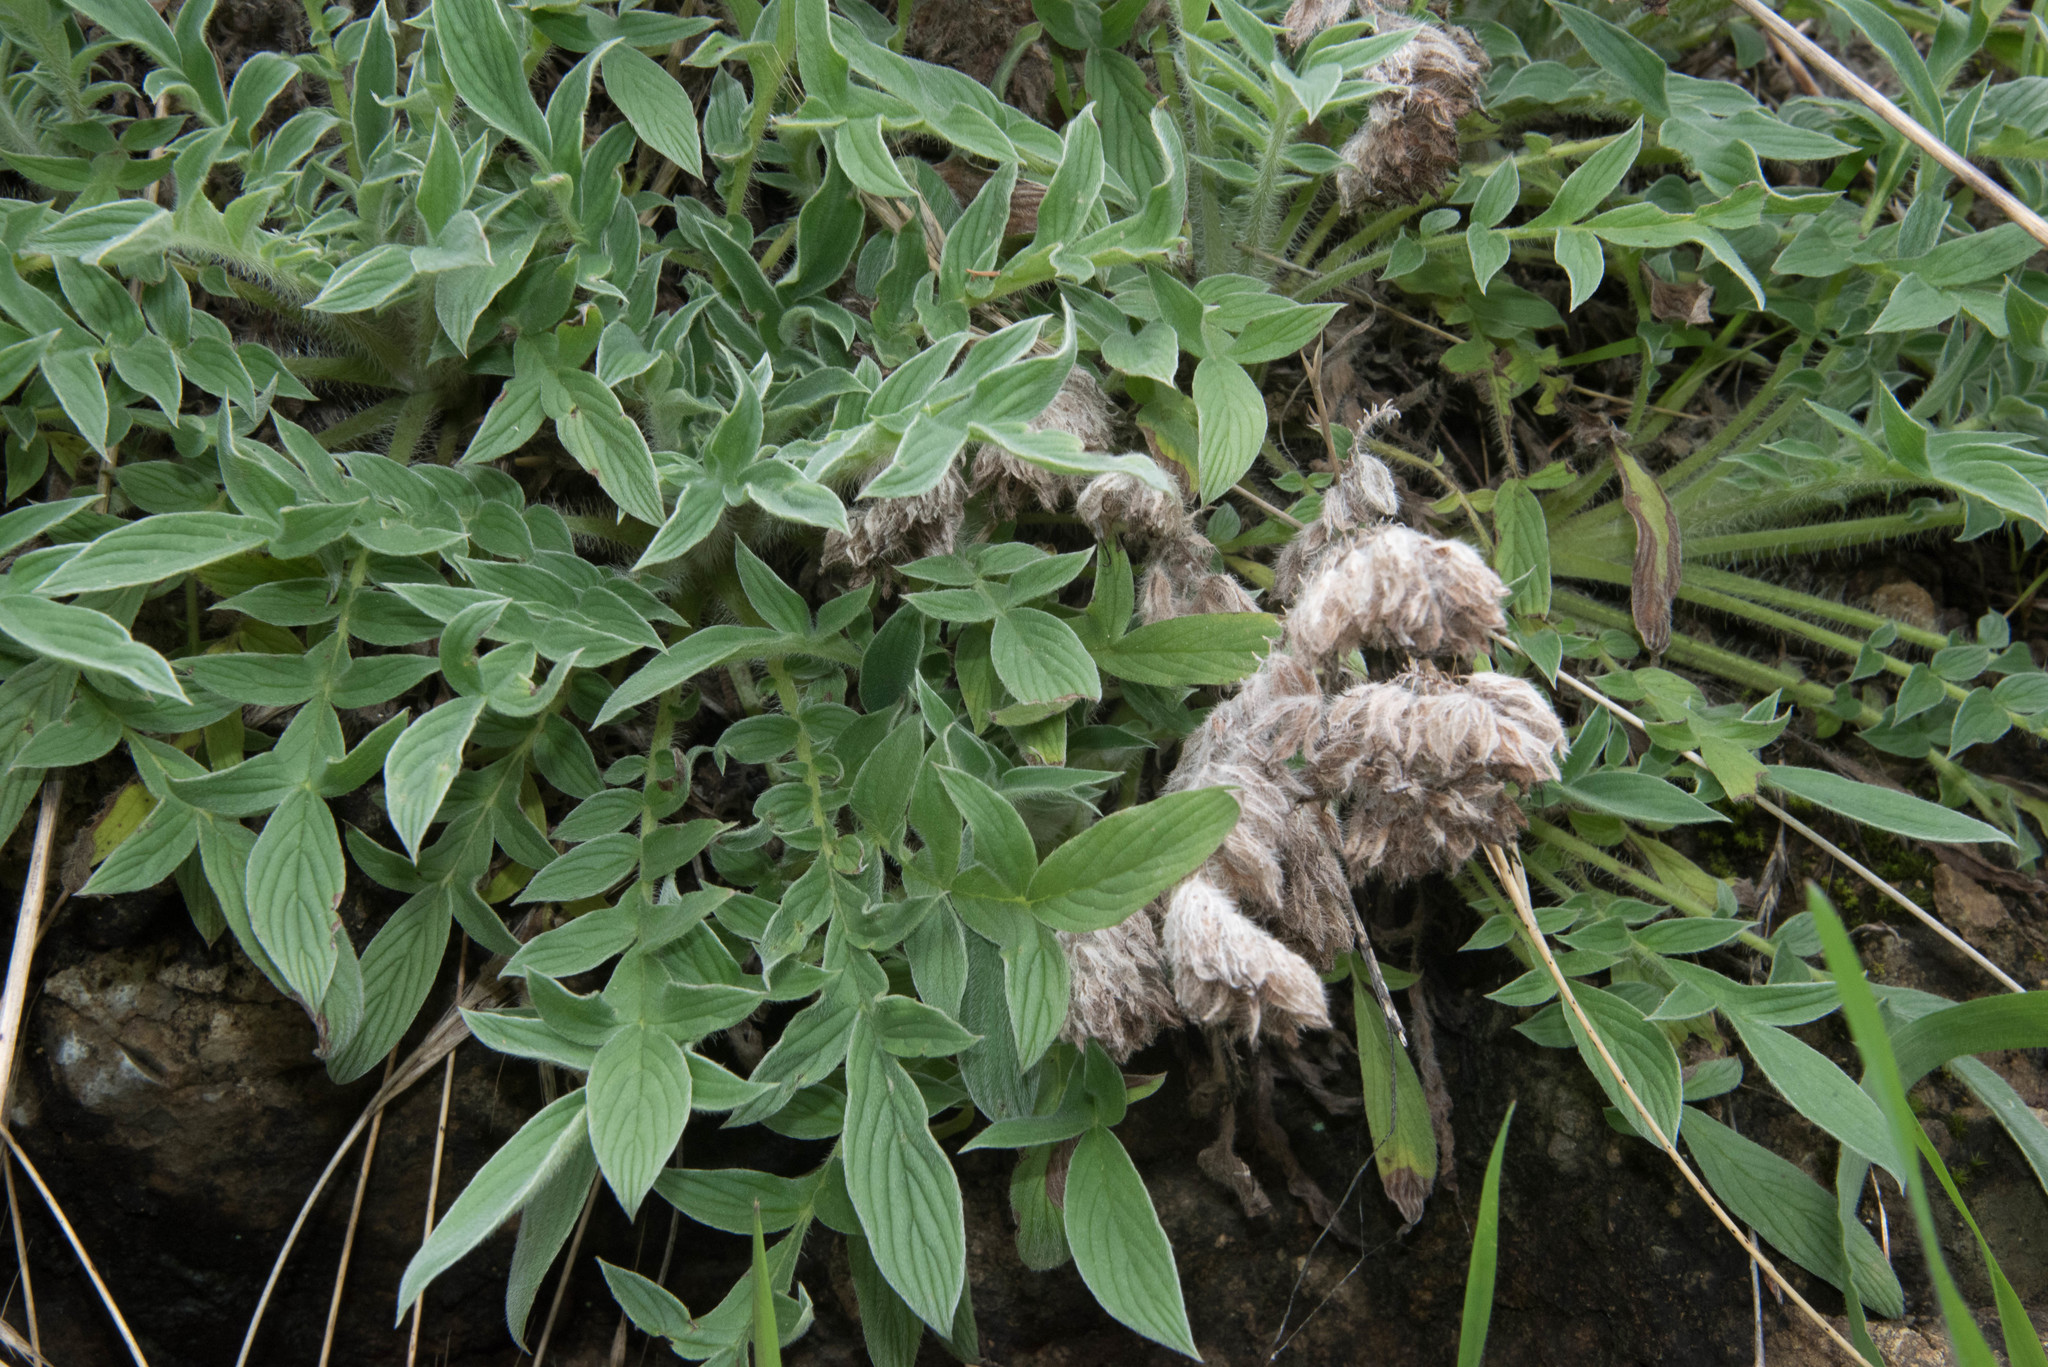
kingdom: Plantae
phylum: Tracheophyta
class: Magnoliopsida
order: Boraginales
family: Hydrophyllaceae
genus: Phacelia
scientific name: Phacelia imbricata
